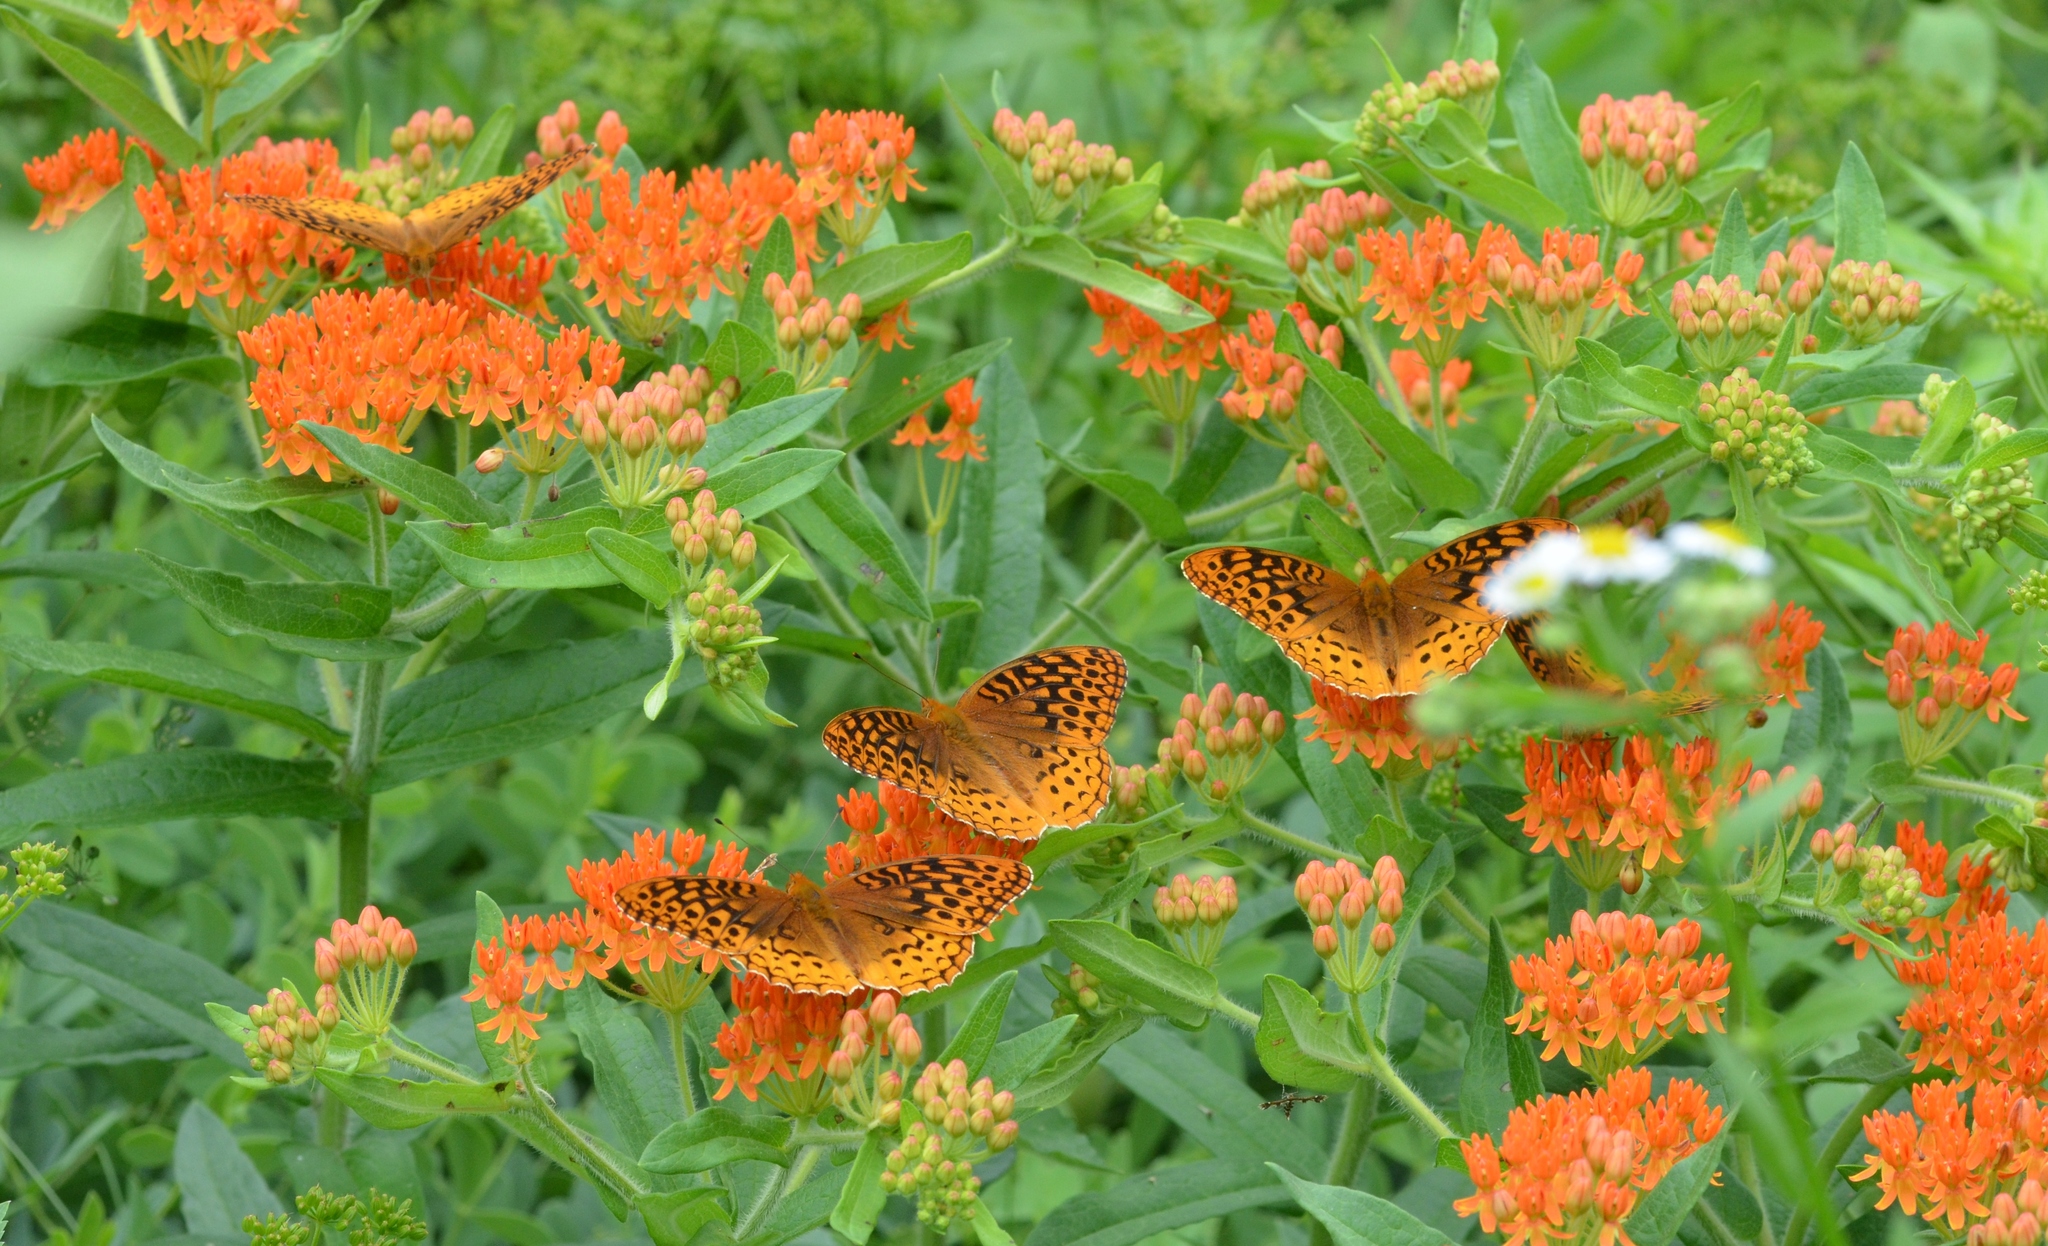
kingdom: Animalia
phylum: Arthropoda
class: Insecta
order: Lepidoptera
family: Nymphalidae
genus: Speyeria
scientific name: Speyeria cybele
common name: Great spangled fritillary
